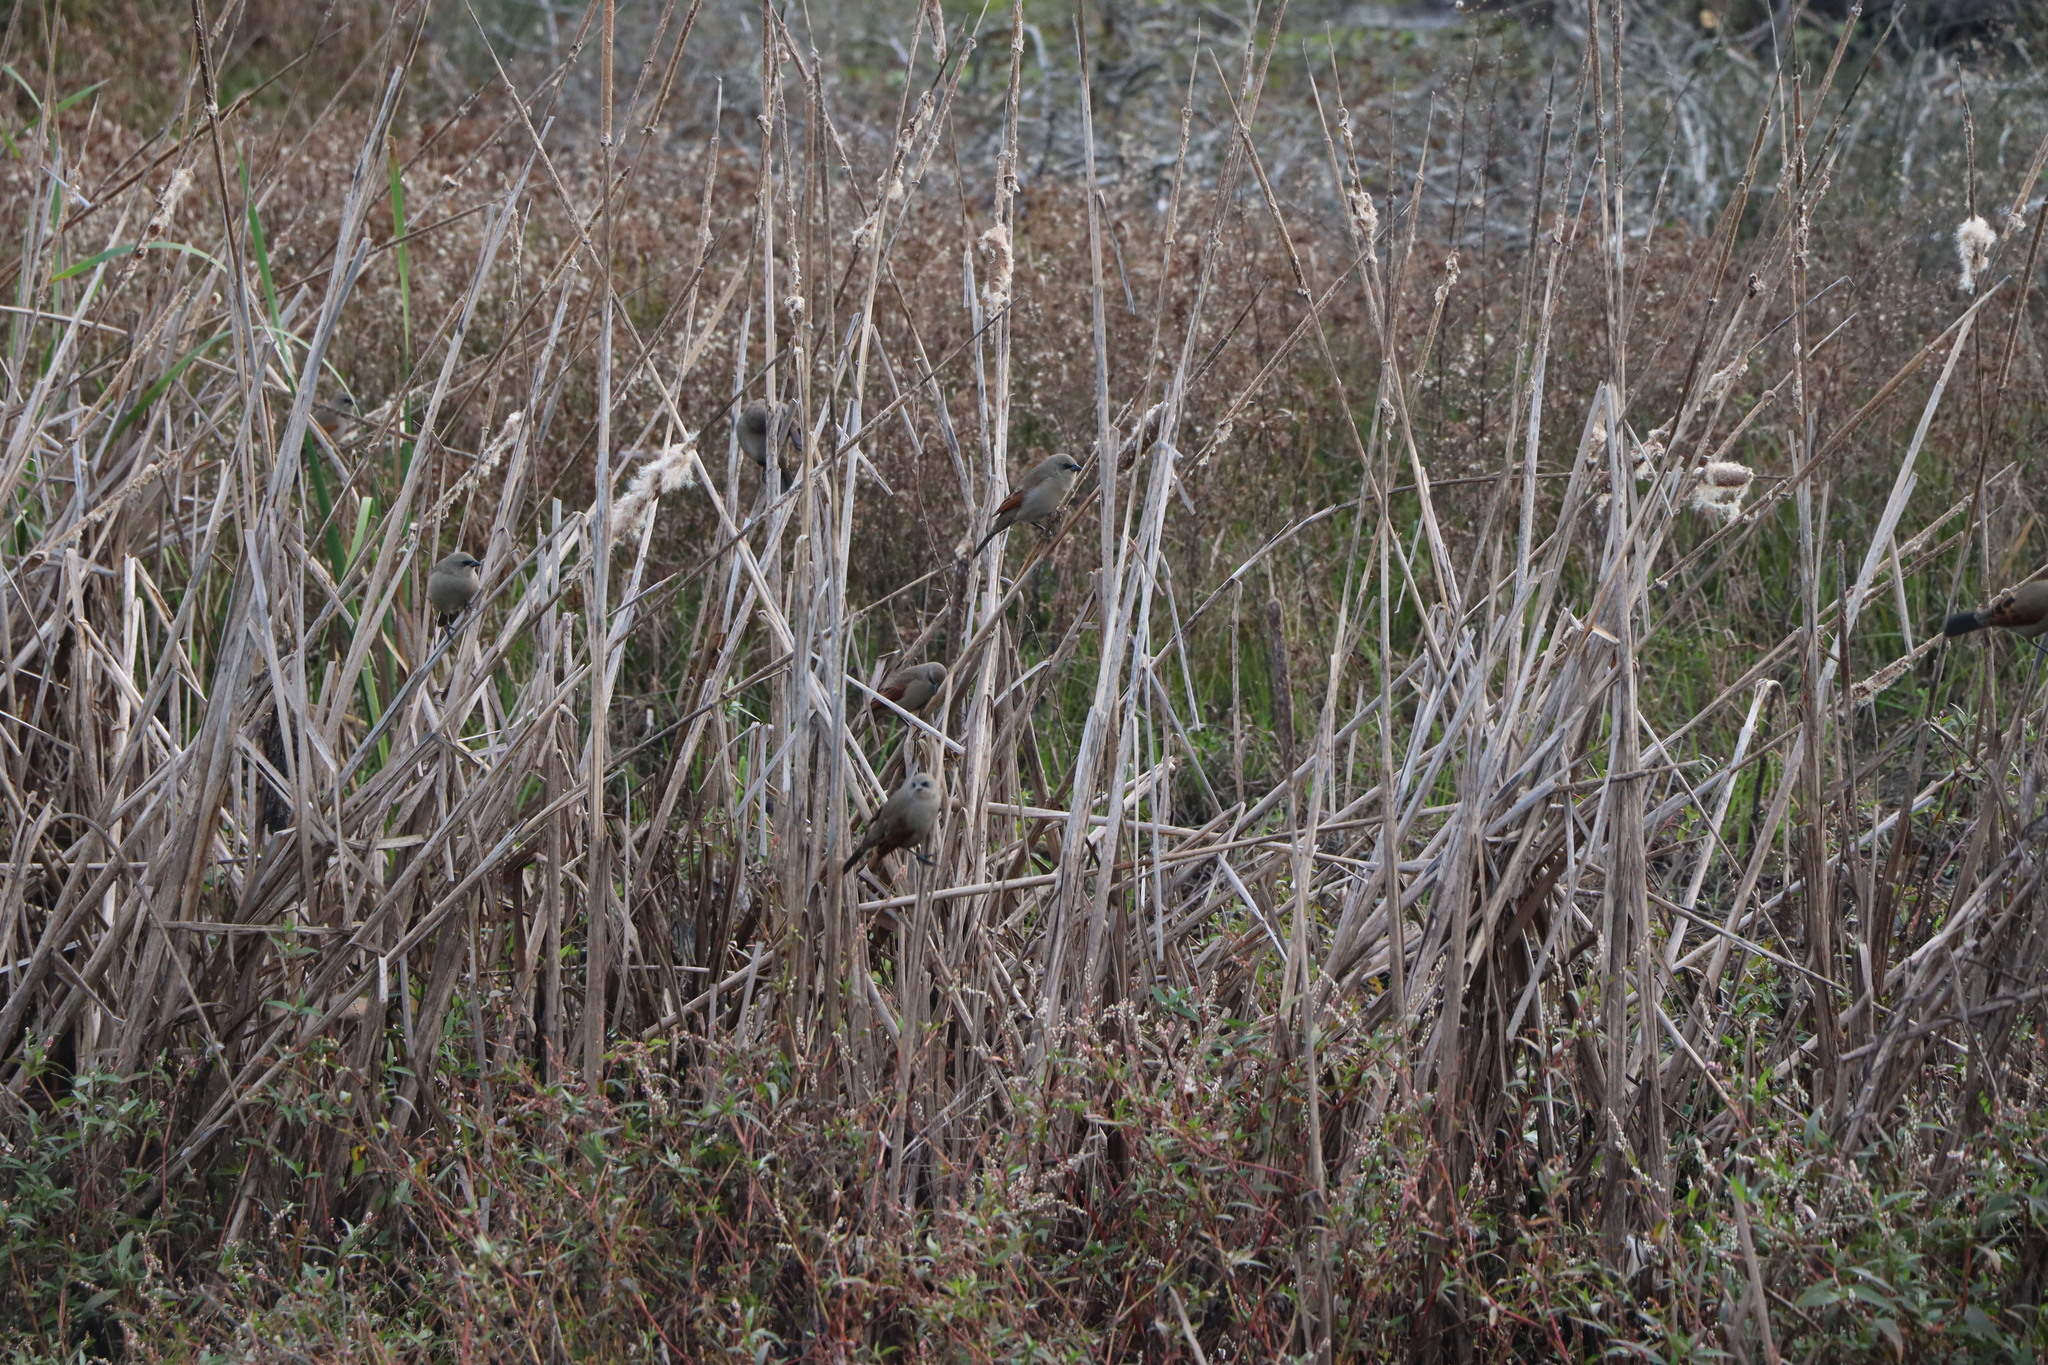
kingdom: Animalia
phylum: Chordata
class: Aves
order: Passeriformes
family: Icteridae
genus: Agelaioides
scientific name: Agelaioides badius
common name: Baywing
